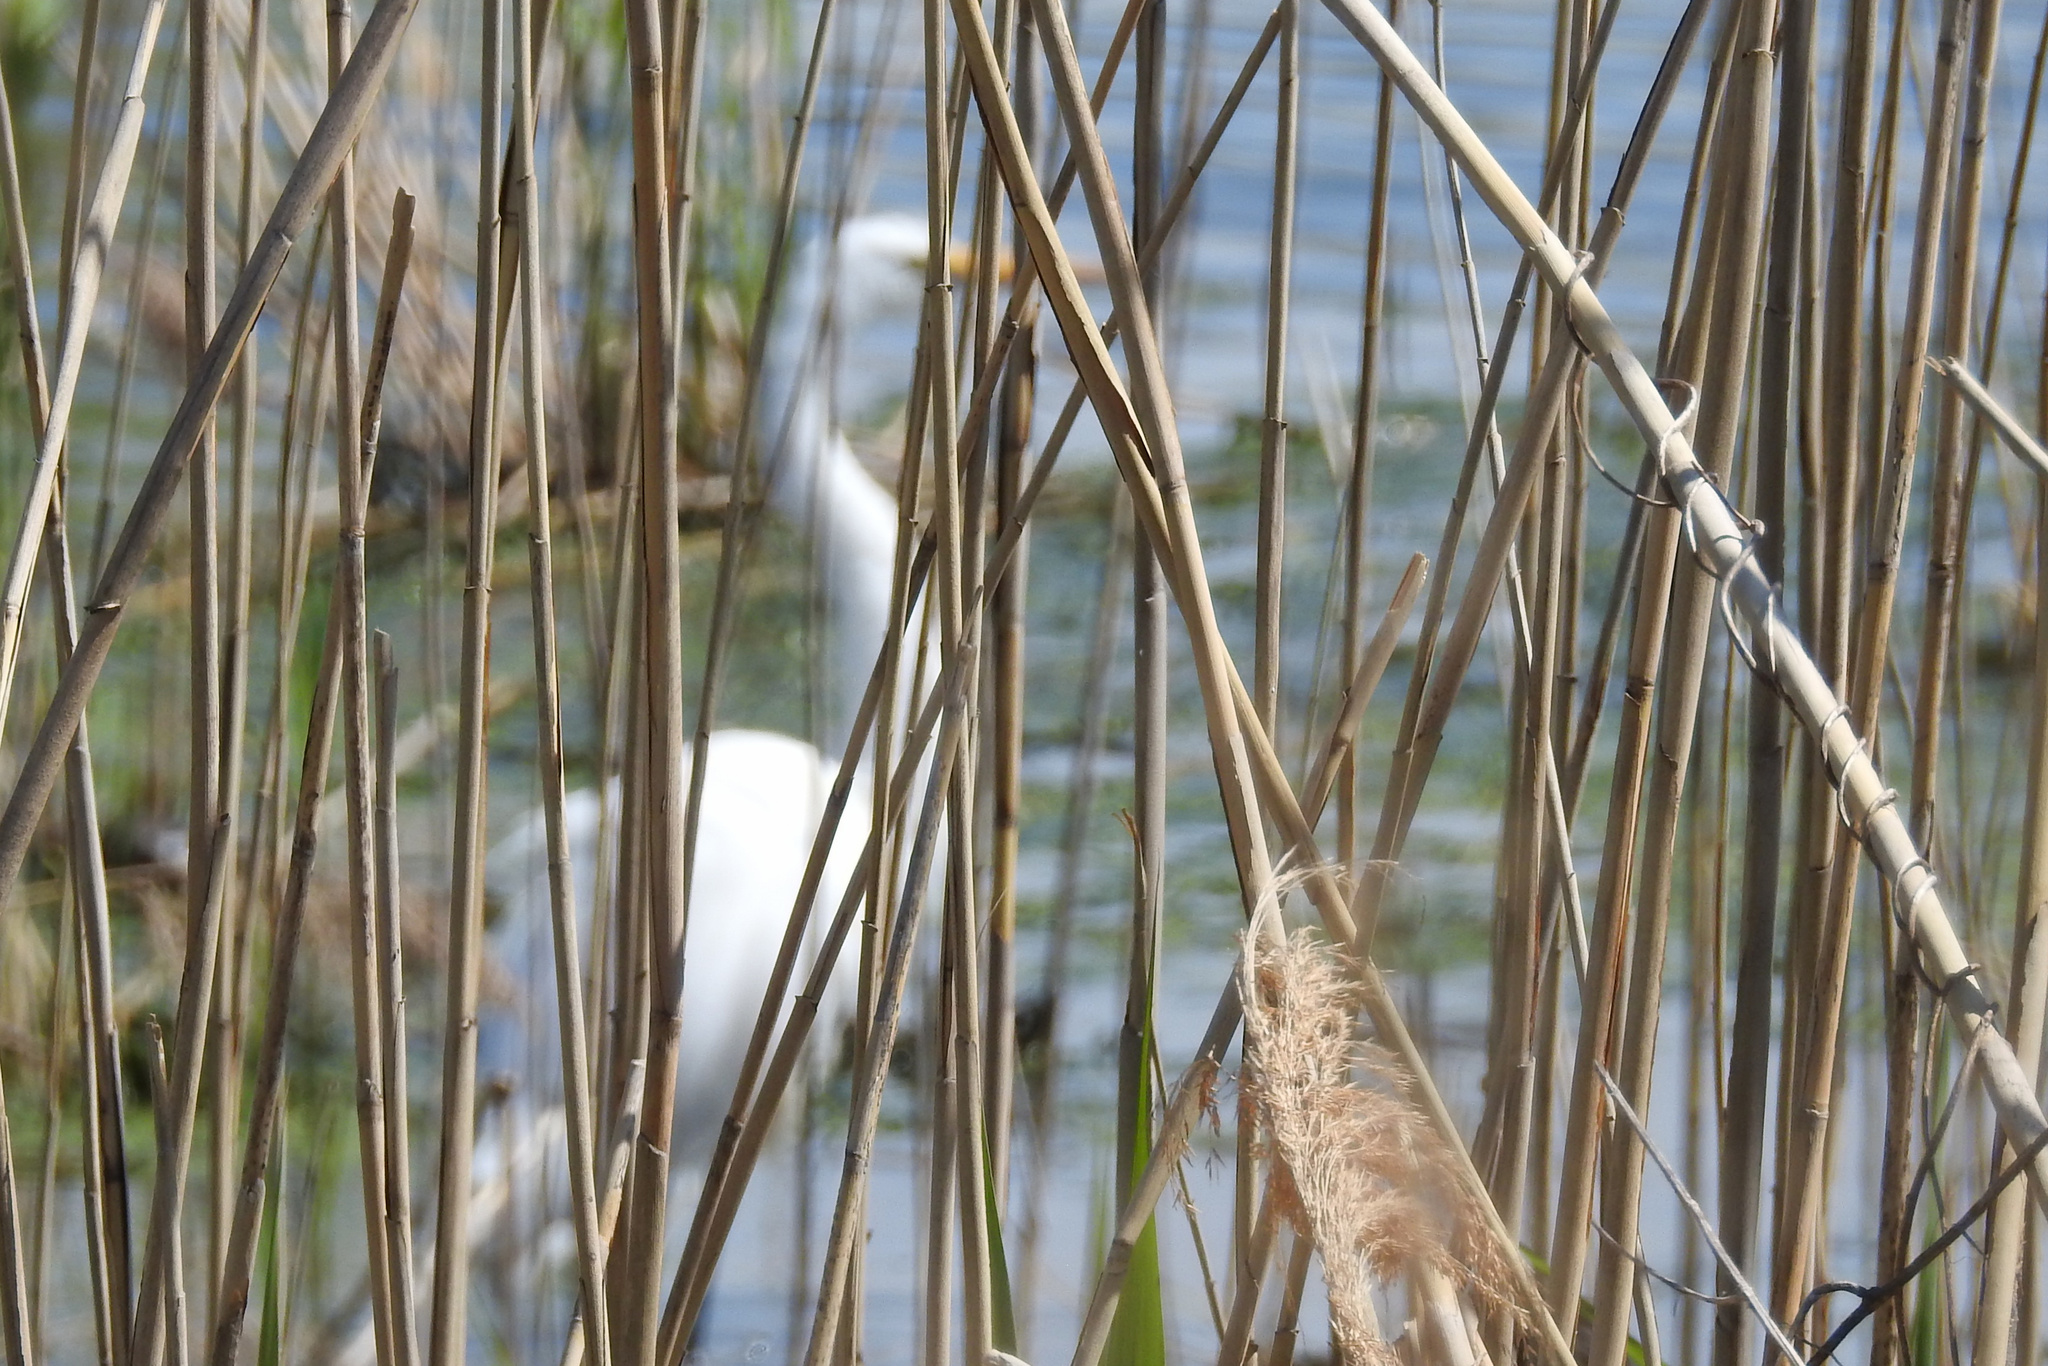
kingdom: Animalia
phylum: Chordata
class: Aves
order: Pelecaniformes
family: Ardeidae
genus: Ardea
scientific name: Ardea alba
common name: Great egret
